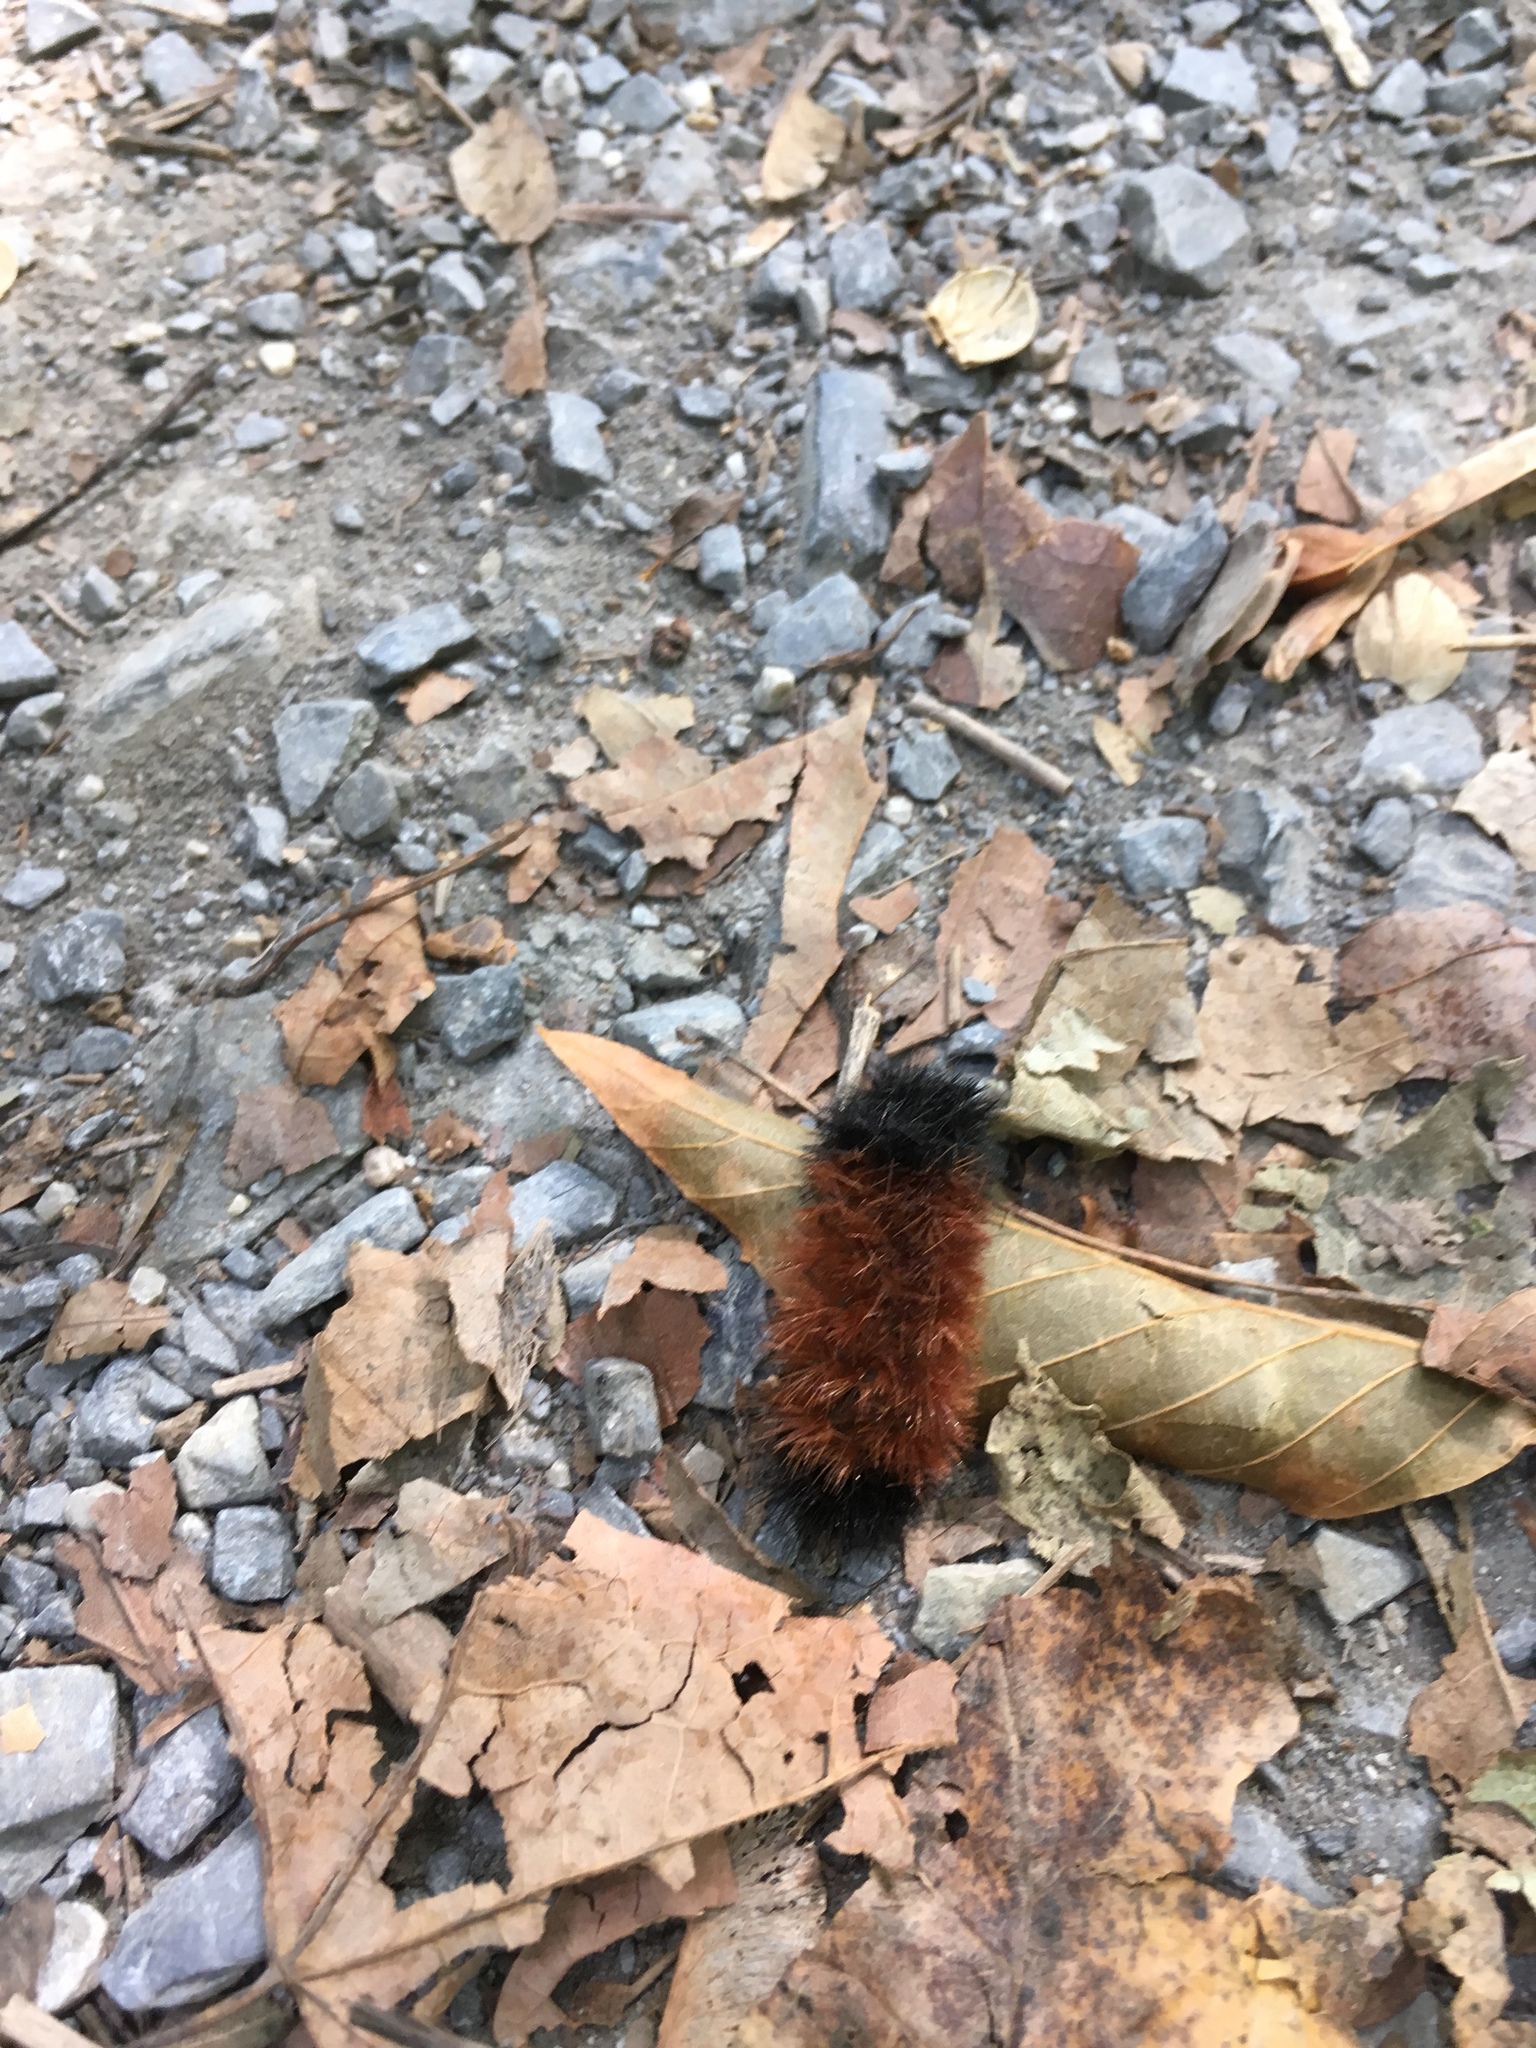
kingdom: Animalia
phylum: Arthropoda
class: Insecta
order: Lepidoptera
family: Erebidae
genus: Pyrrharctia
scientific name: Pyrrharctia isabella
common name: Isabella tiger moth
